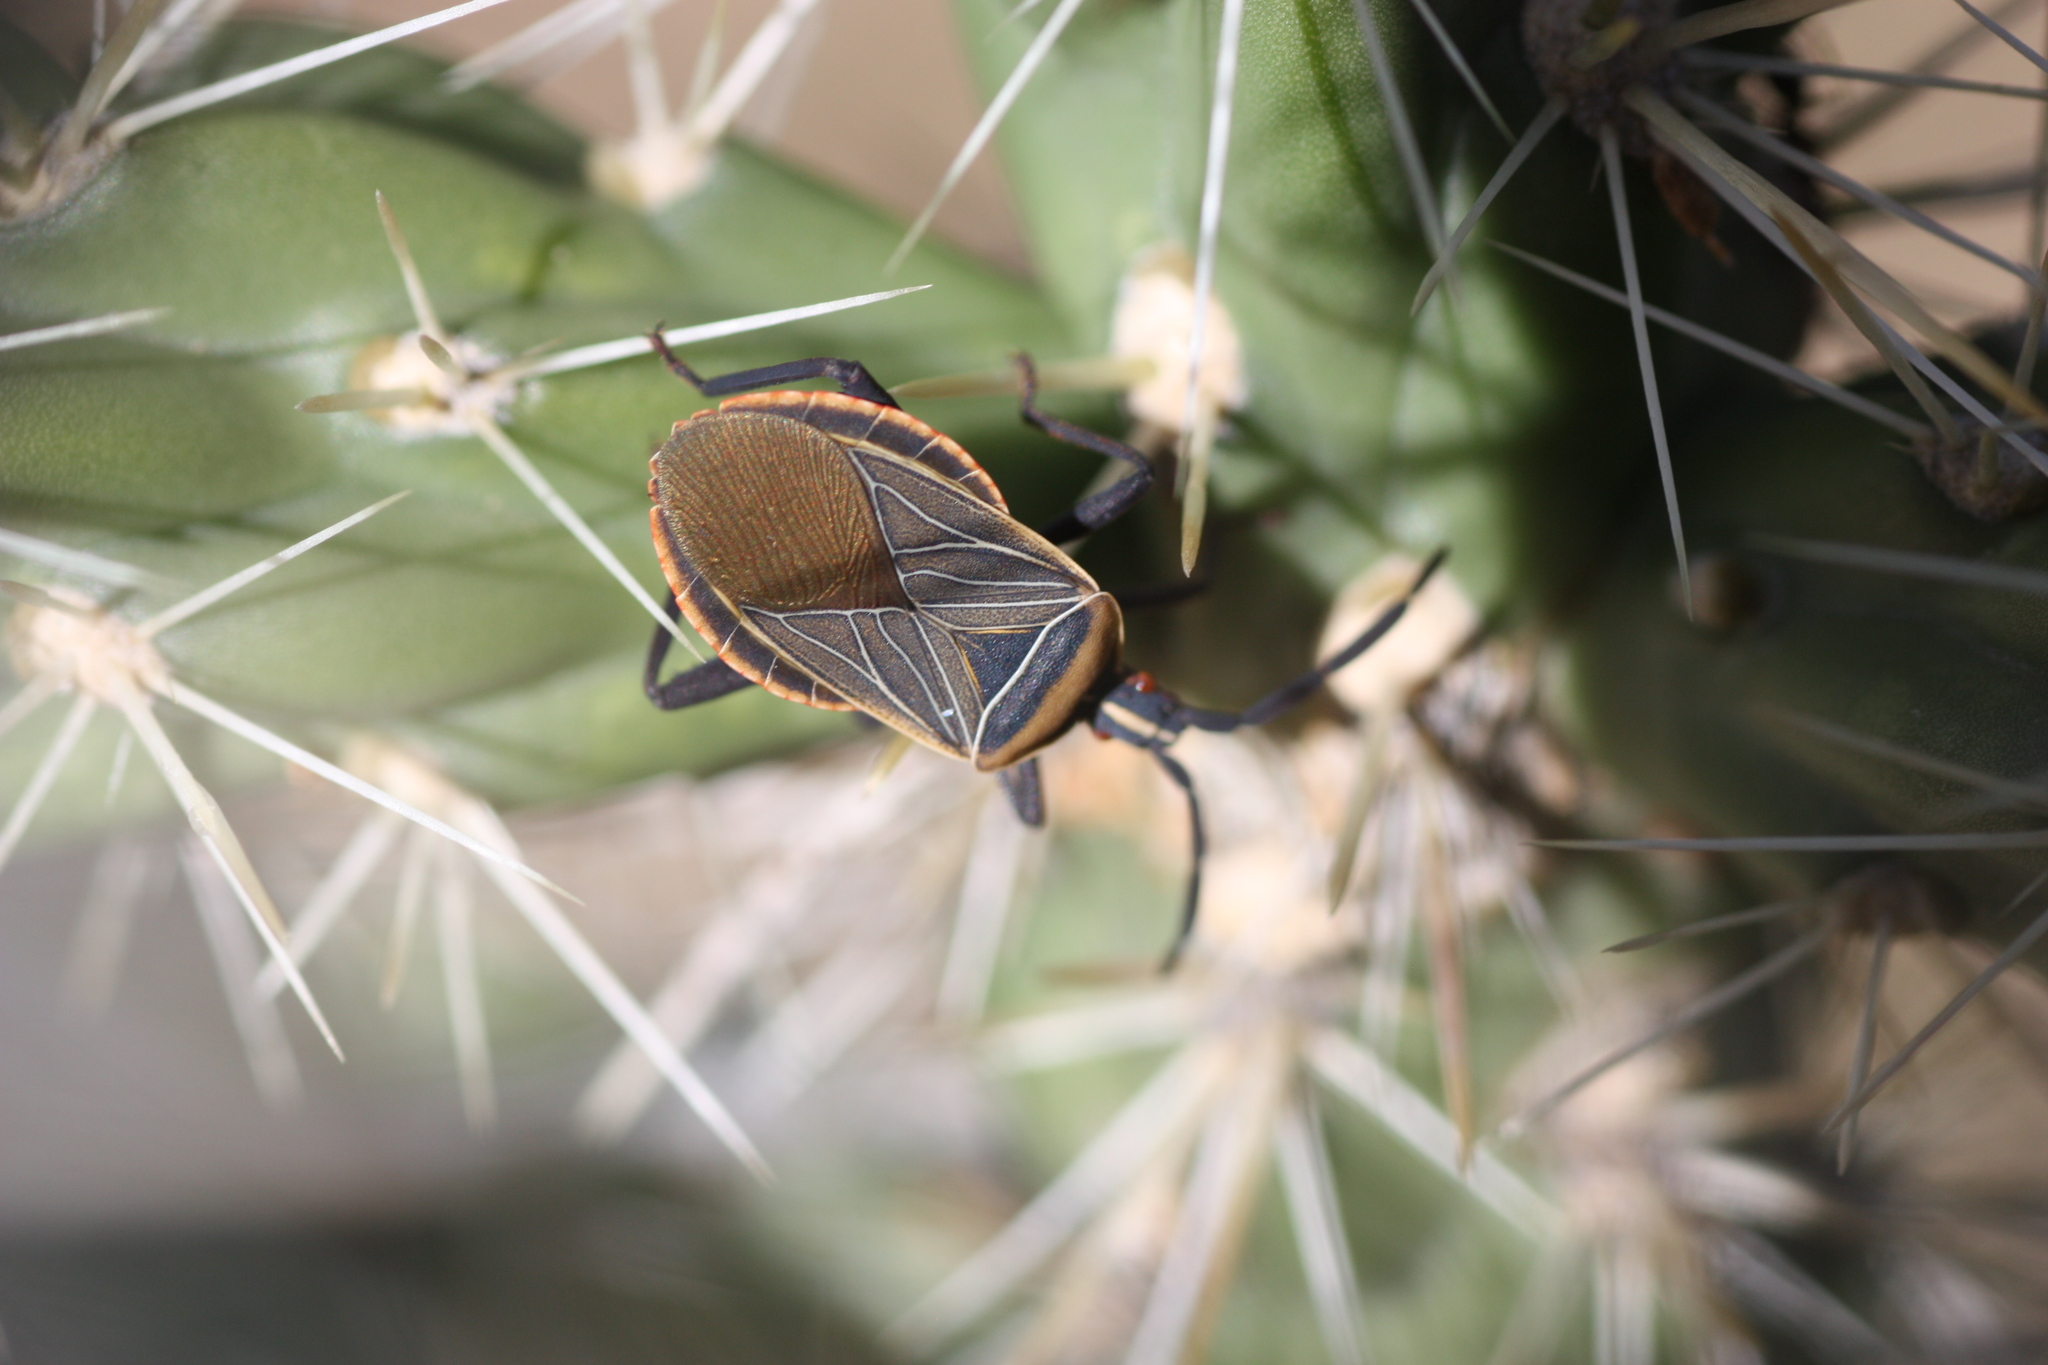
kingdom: Animalia
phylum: Arthropoda
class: Insecta
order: Hemiptera
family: Coreidae
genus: Chelinidea
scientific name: Chelinidea vittiger
